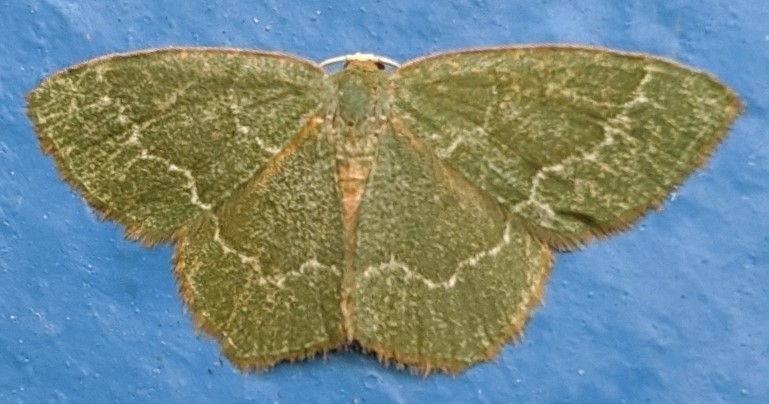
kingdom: Animalia
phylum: Arthropoda
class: Insecta
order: Lepidoptera
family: Geometridae
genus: Thalera
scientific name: Thalera pistasciaria
